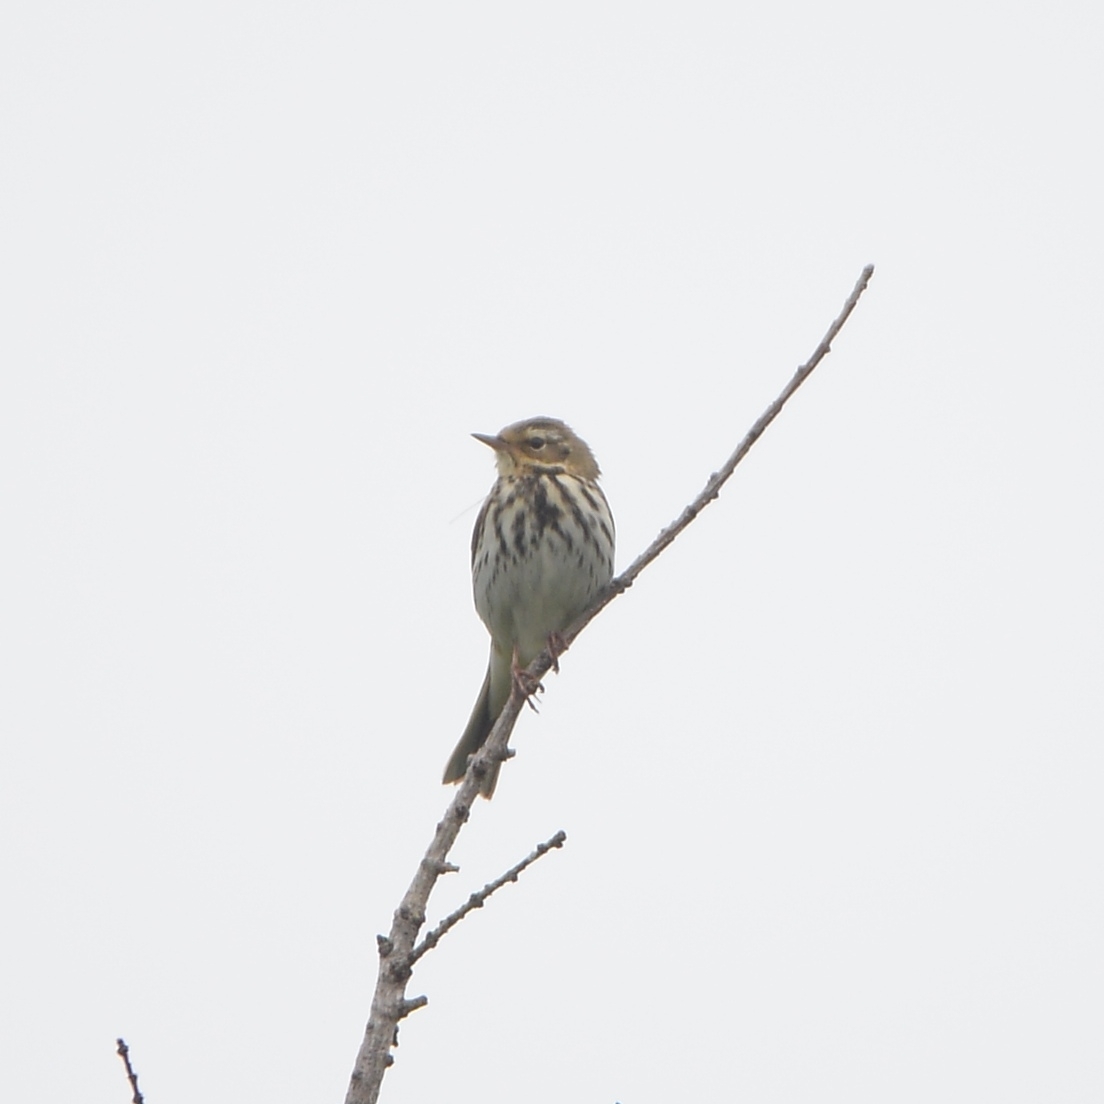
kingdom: Animalia
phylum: Chordata
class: Aves
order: Passeriformes
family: Motacillidae
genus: Anthus
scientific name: Anthus hodgsoni
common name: Olive-backed pipit
